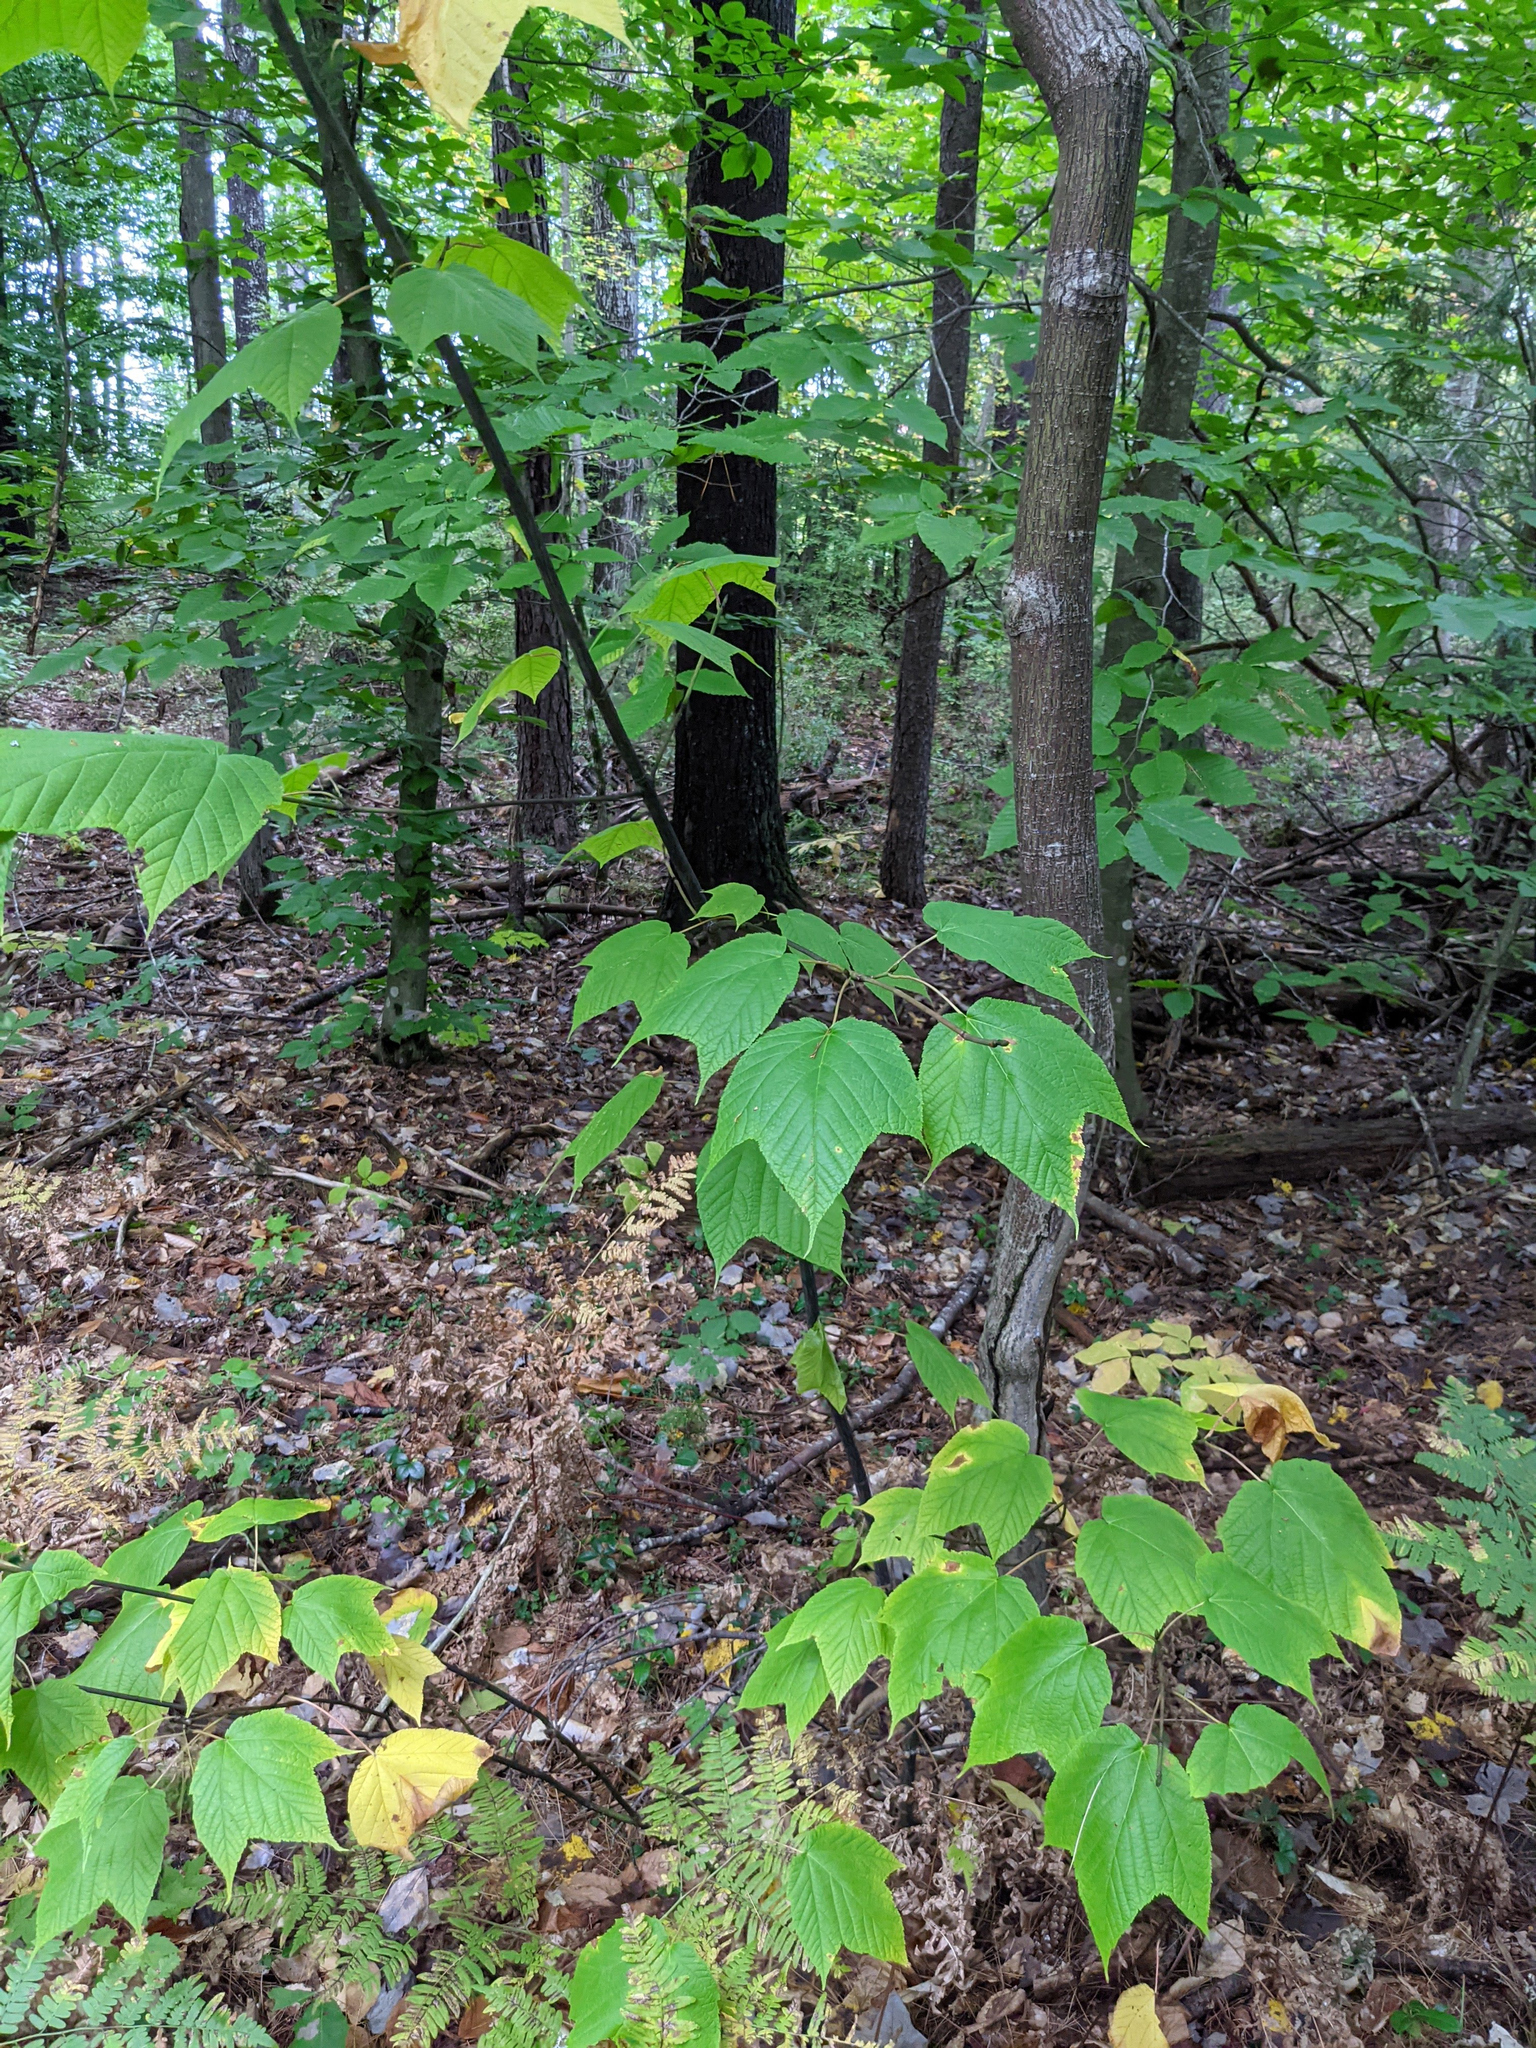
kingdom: Plantae
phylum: Tracheophyta
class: Magnoliopsida
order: Sapindales
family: Sapindaceae
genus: Acer
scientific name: Acer pensylvanicum
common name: Moosewood
